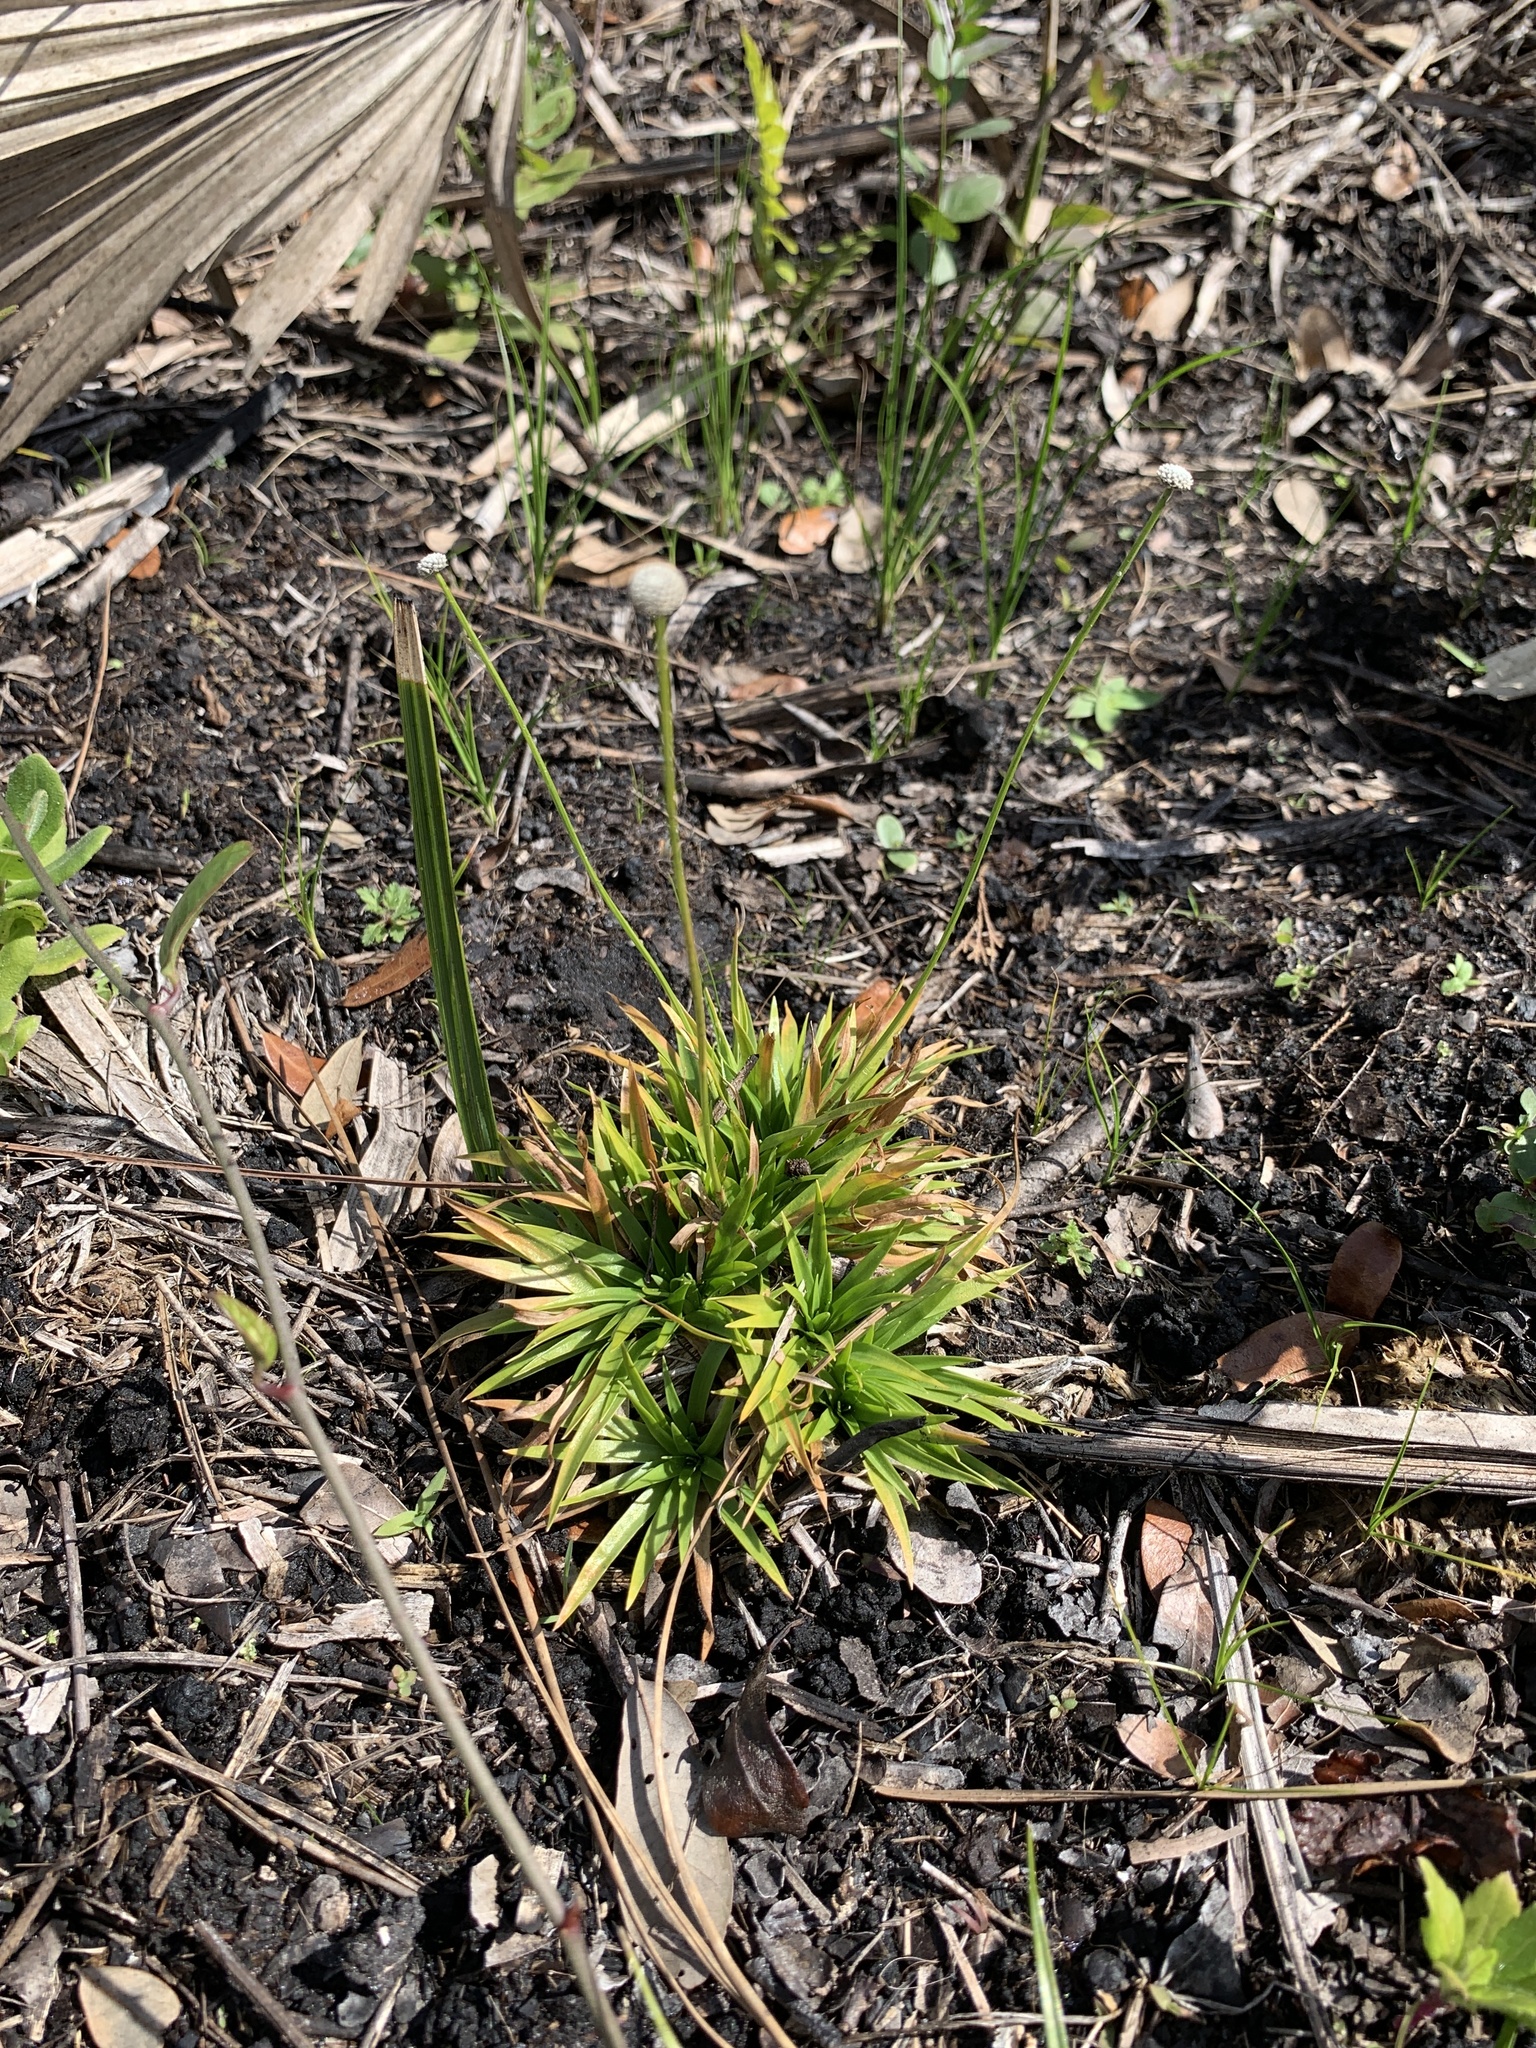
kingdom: Plantae
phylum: Tracheophyta
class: Liliopsida
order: Poales
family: Eriocaulaceae
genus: Paepalanthus
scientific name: Paepalanthus anceps
